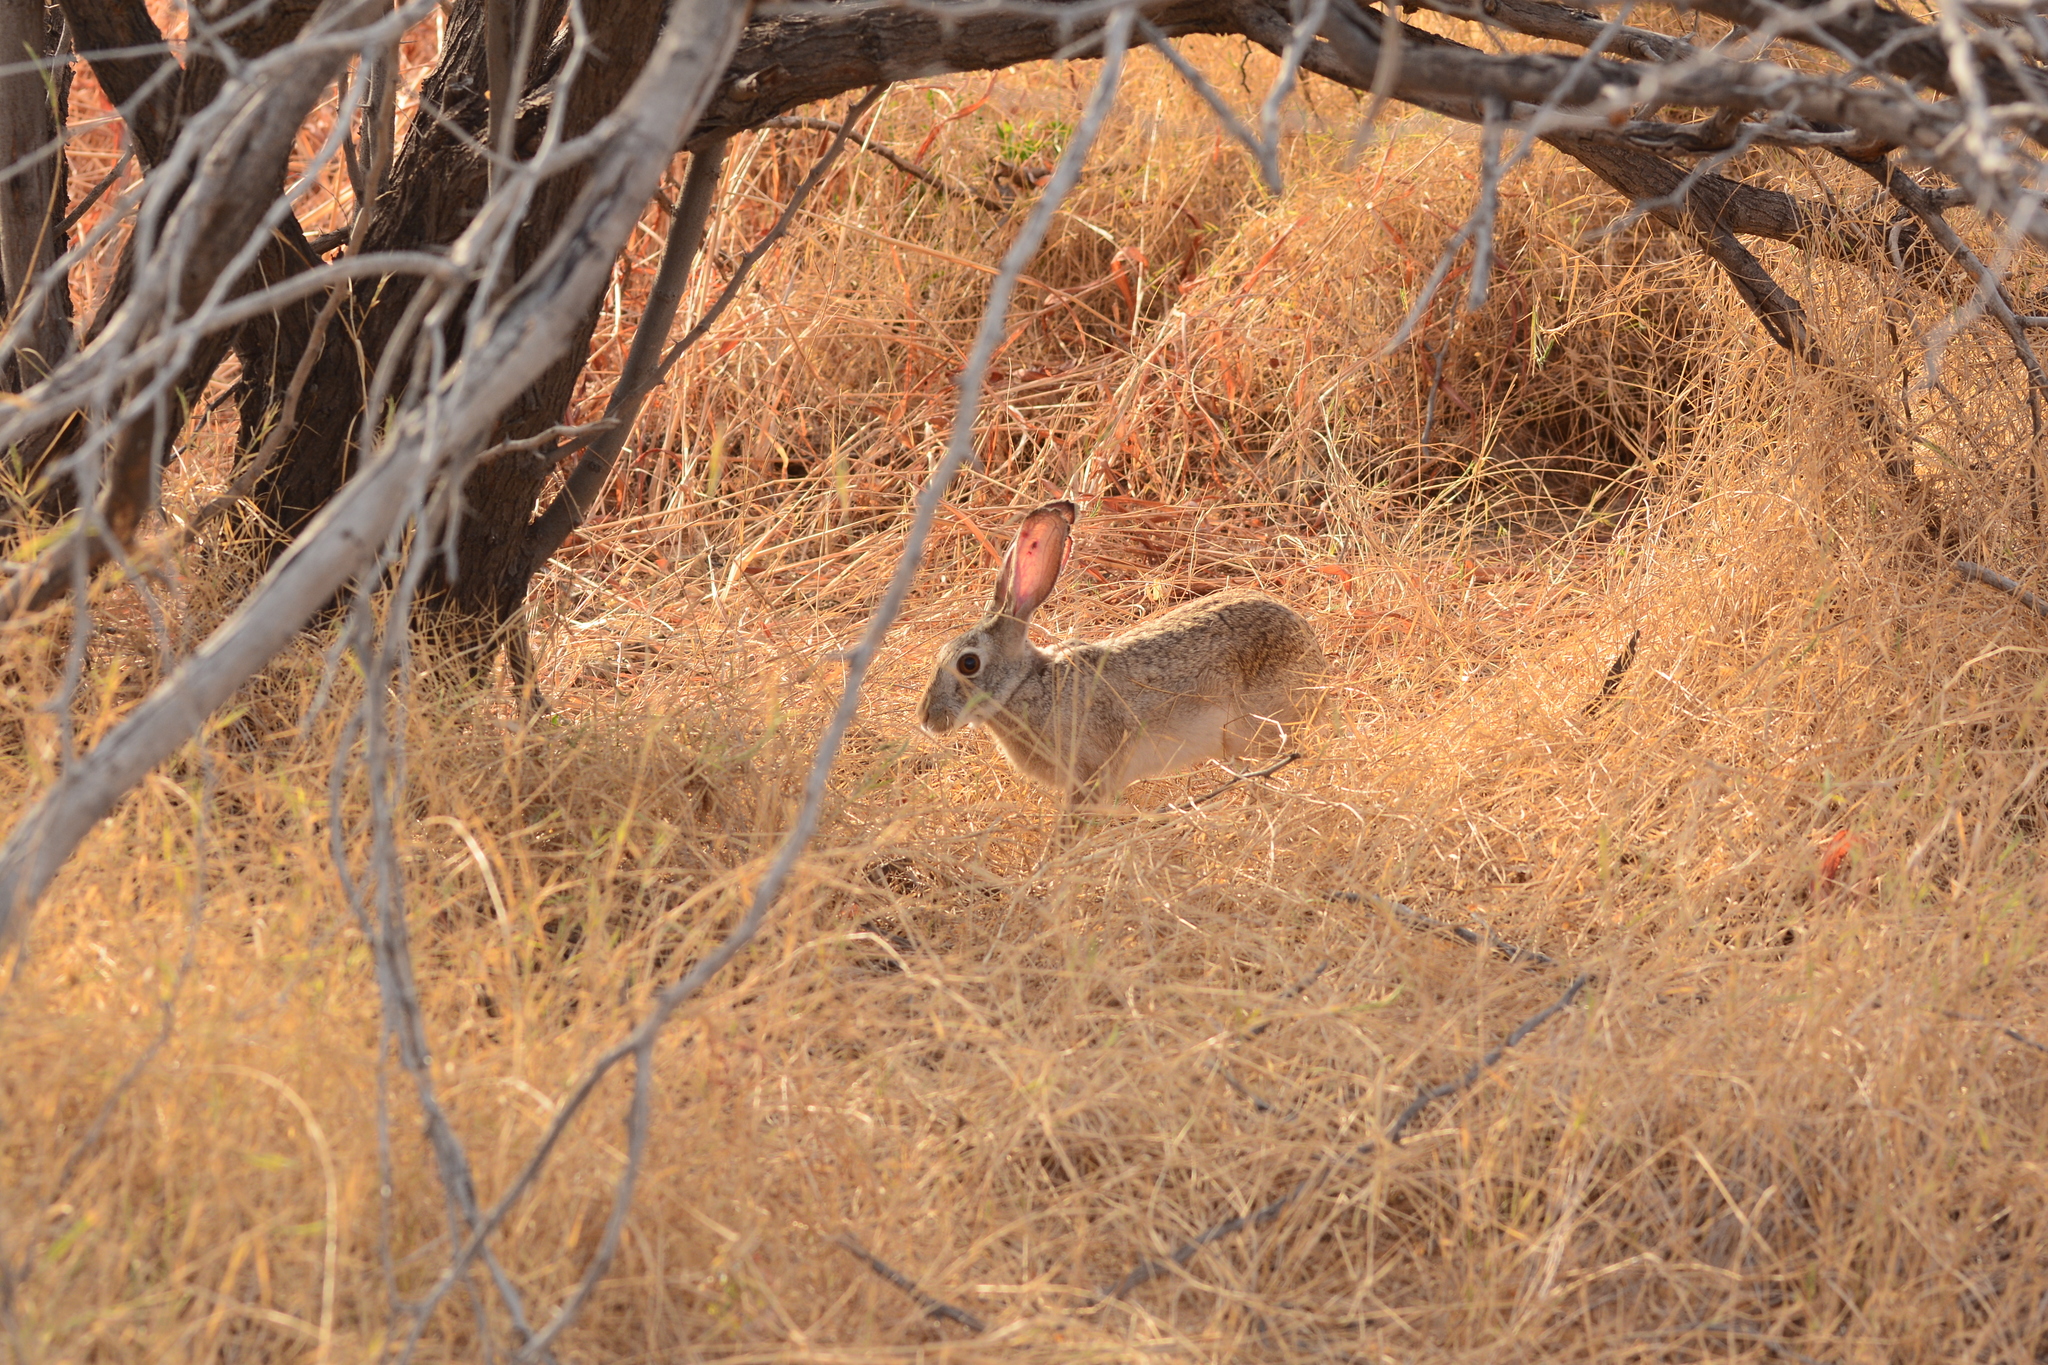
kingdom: Animalia
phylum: Chordata
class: Mammalia
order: Lagomorpha
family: Leporidae
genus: Lepus
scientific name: Lepus nigricollis
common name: Indian hare
